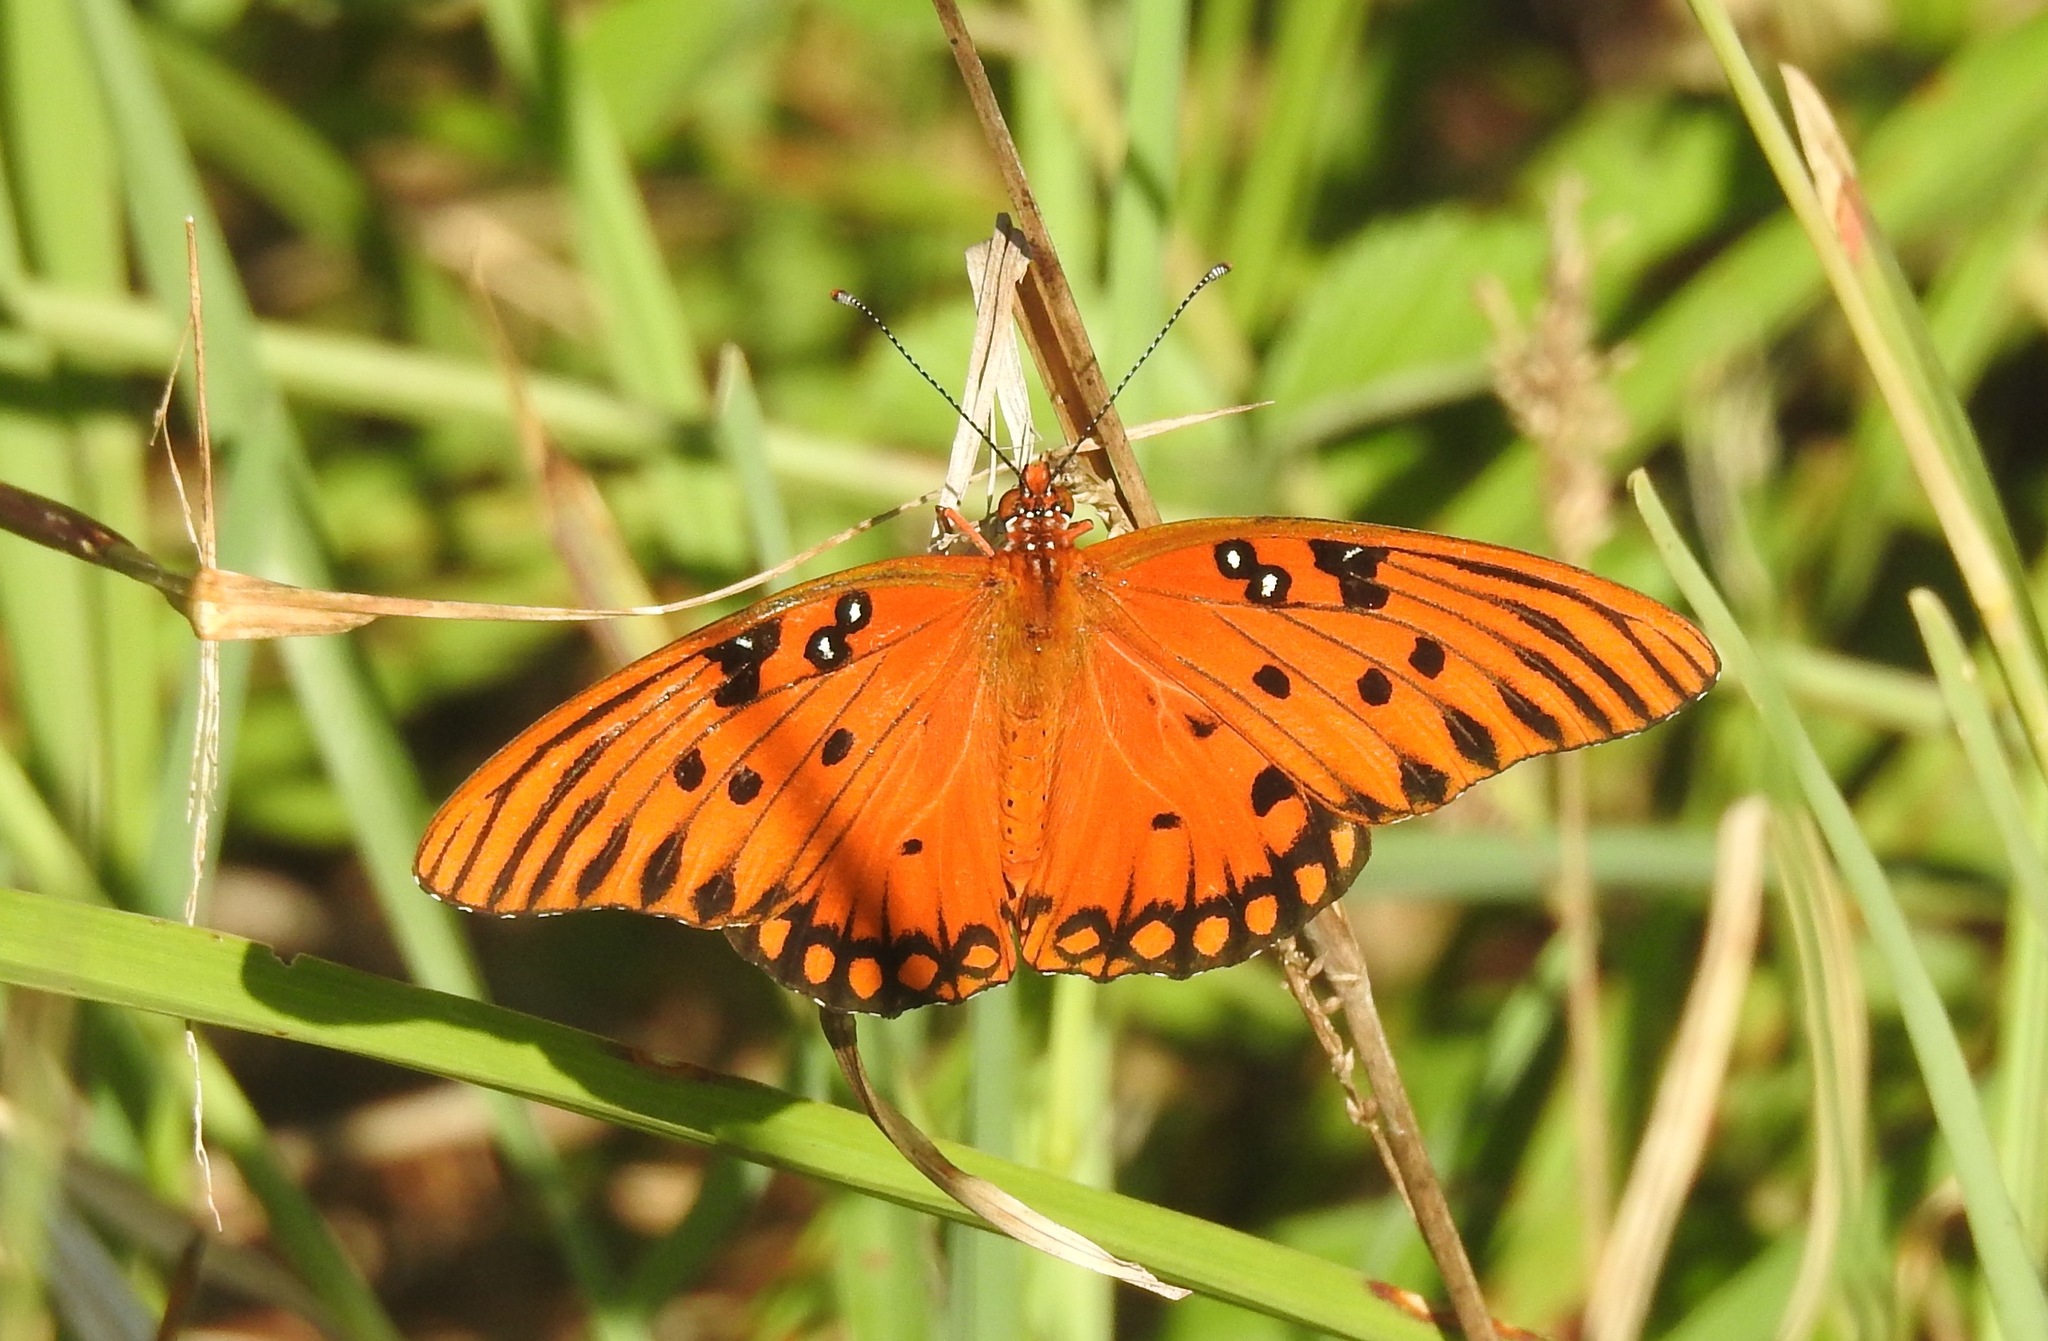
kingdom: Animalia
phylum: Arthropoda
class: Insecta
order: Lepidoptera
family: Nymphalidae
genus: Dione
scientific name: Dione vanillae
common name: Gulf fritillary
